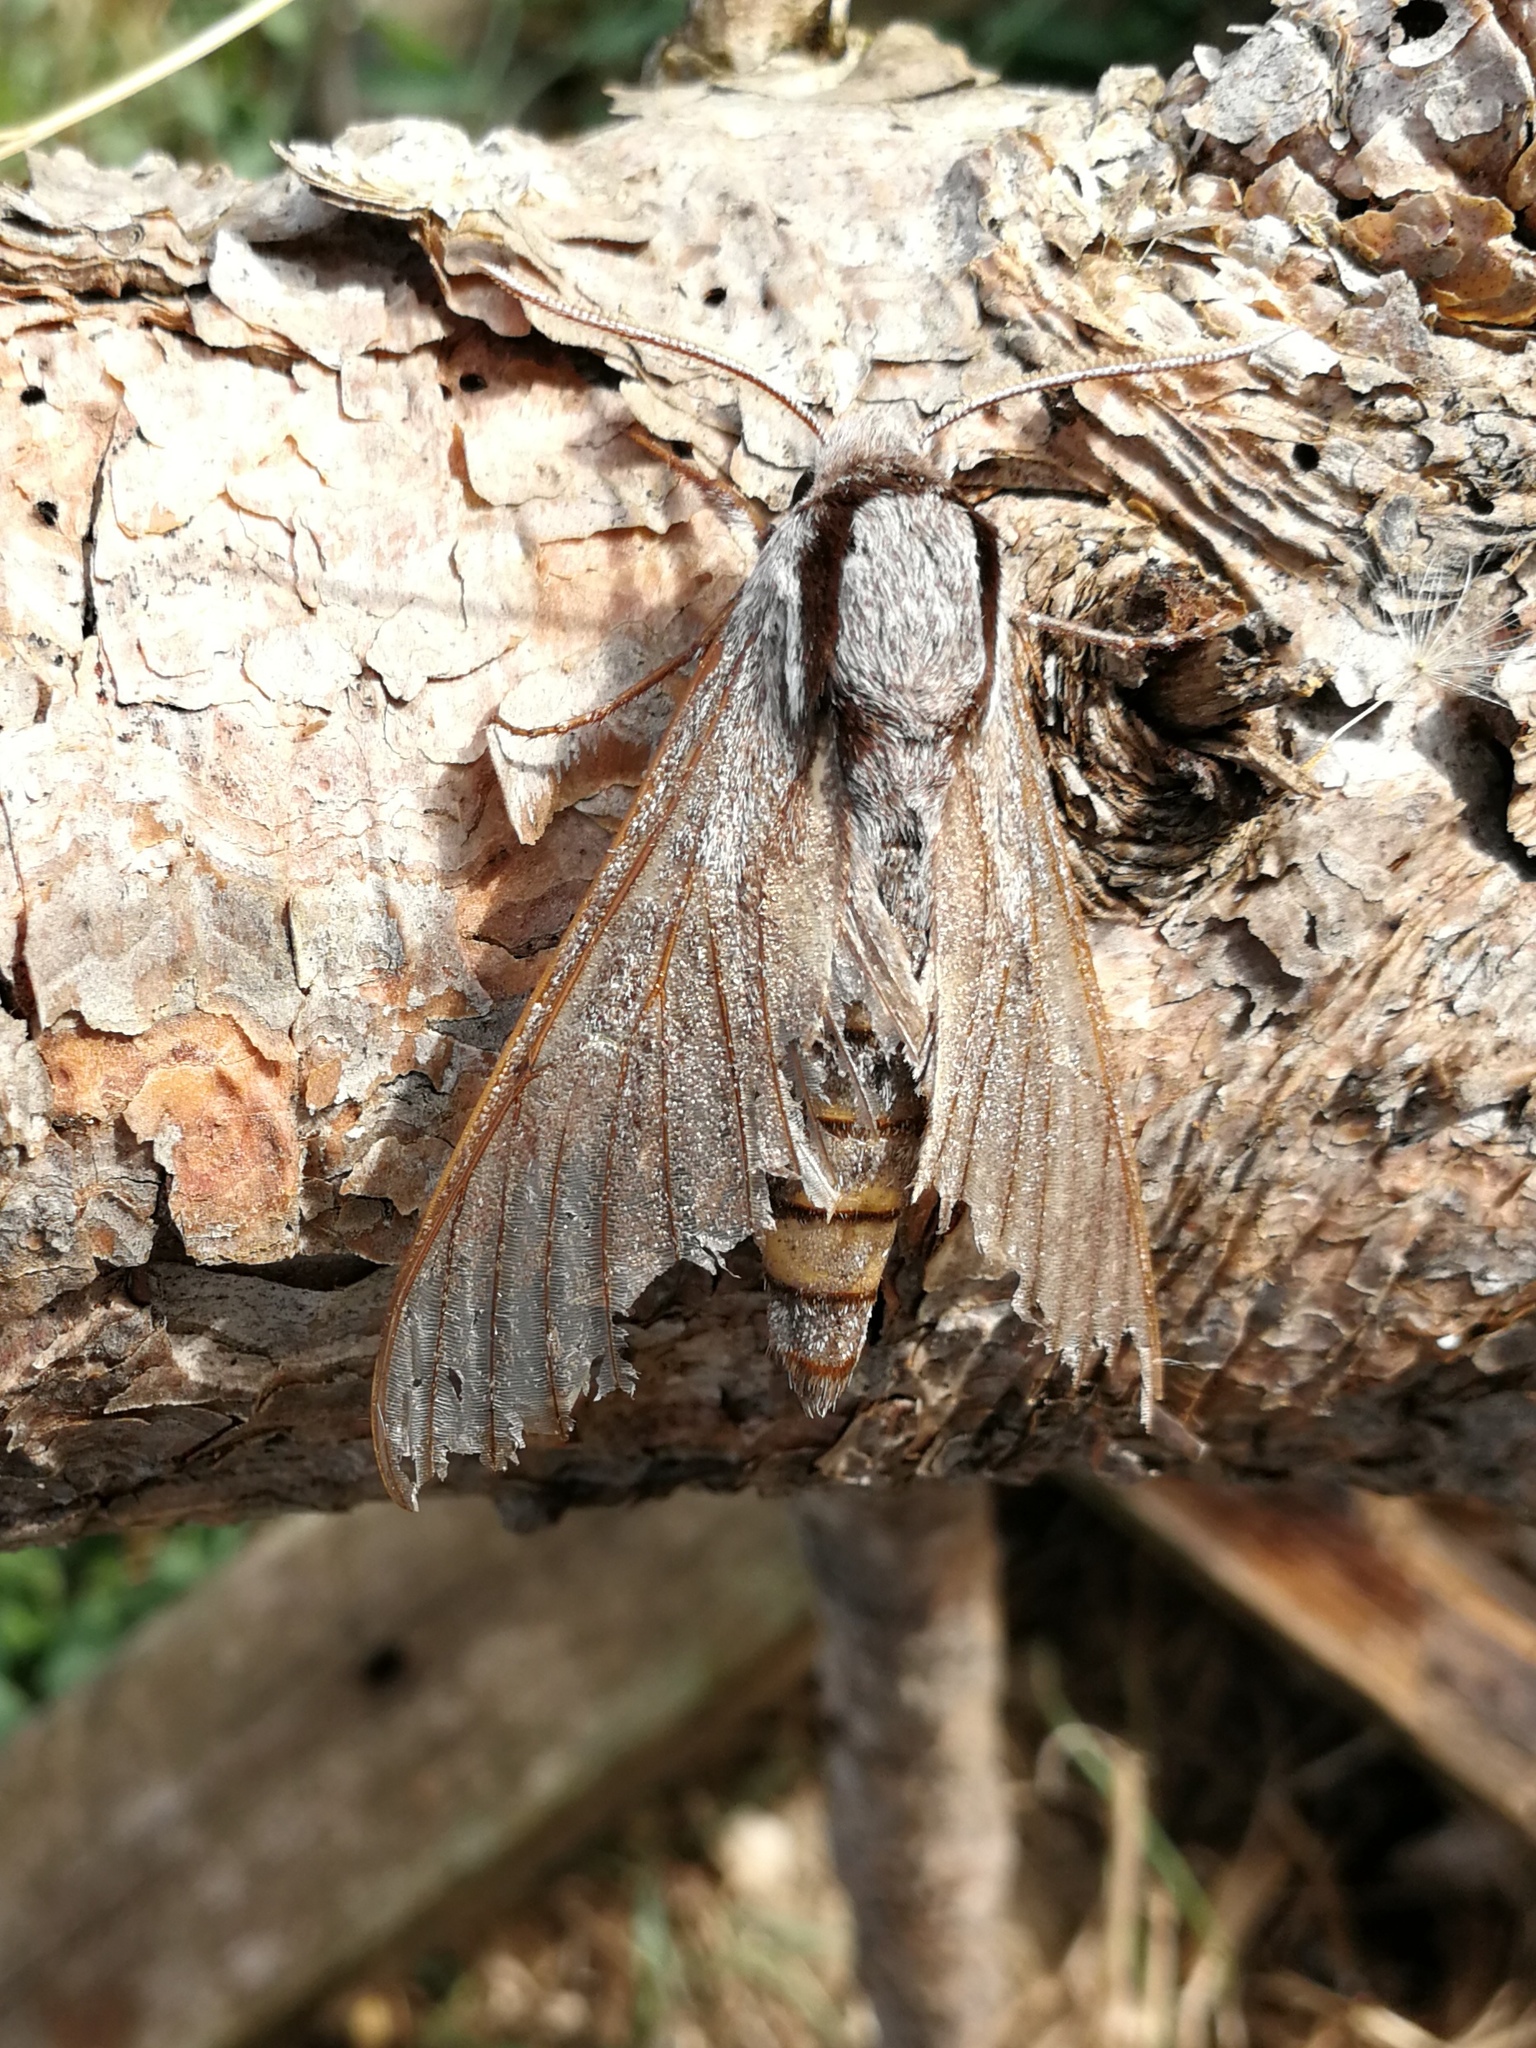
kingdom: Animalia
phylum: Arthropoda
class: Insecta
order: Lepidoptera
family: Sphingidae
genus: Sphinx
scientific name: Sphinx maurorum
